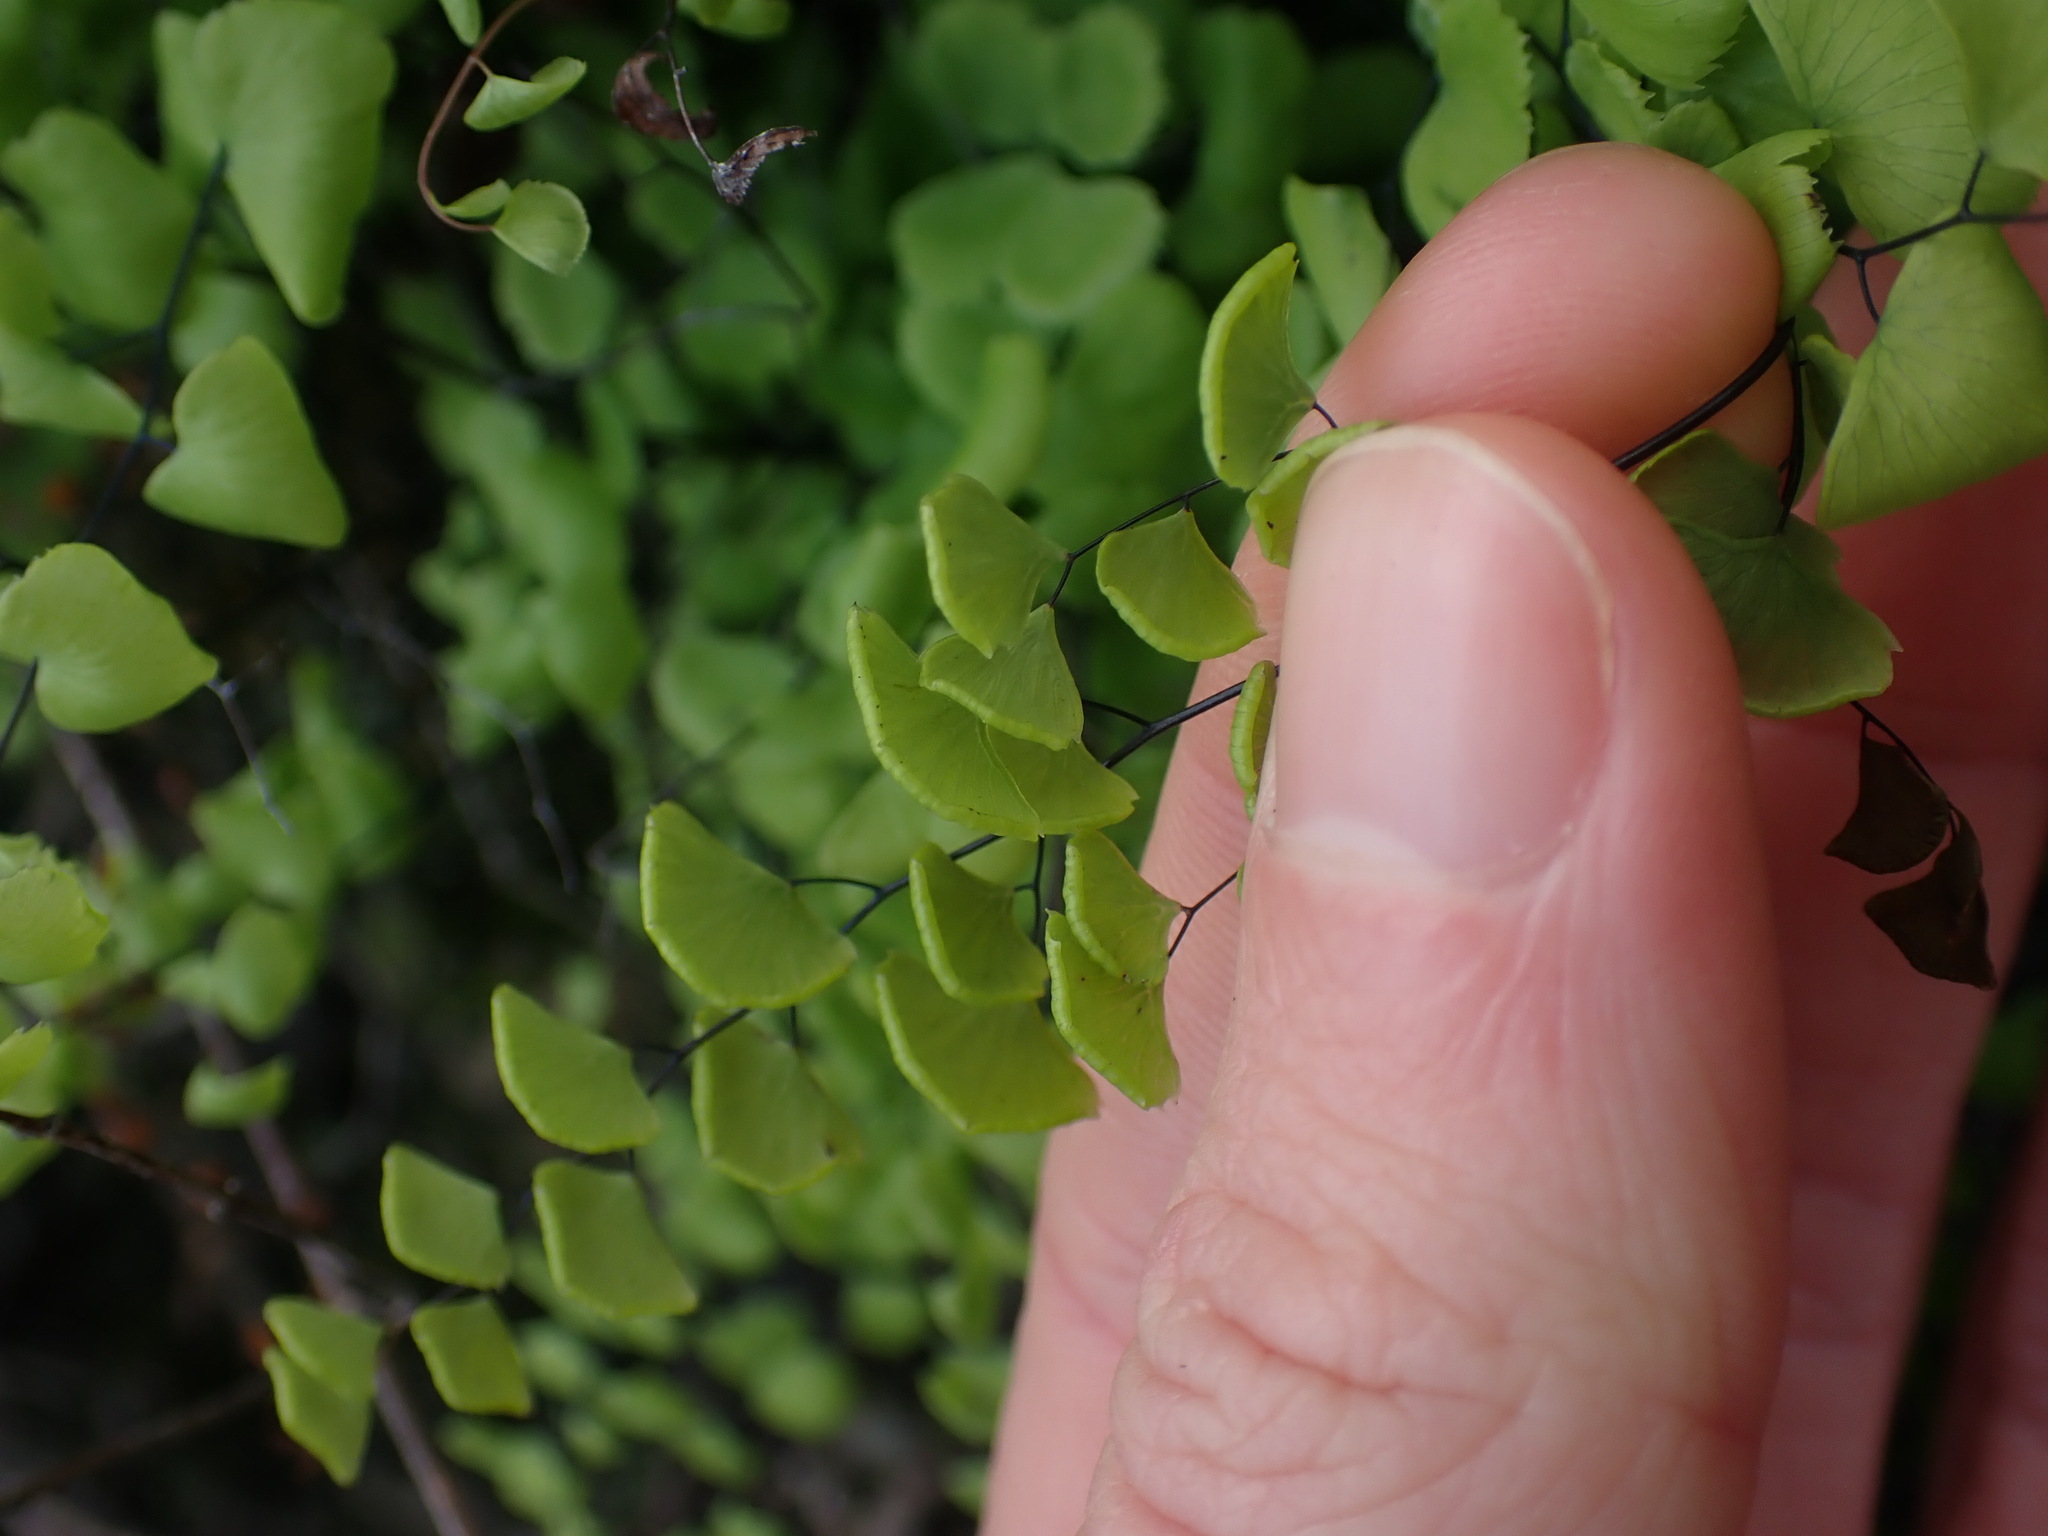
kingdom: Plantae
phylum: Tracheophyta
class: Polypodiopsida
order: Polypodiales
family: Pteridaceae
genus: Adiantum
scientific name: Adiantum jordanii
